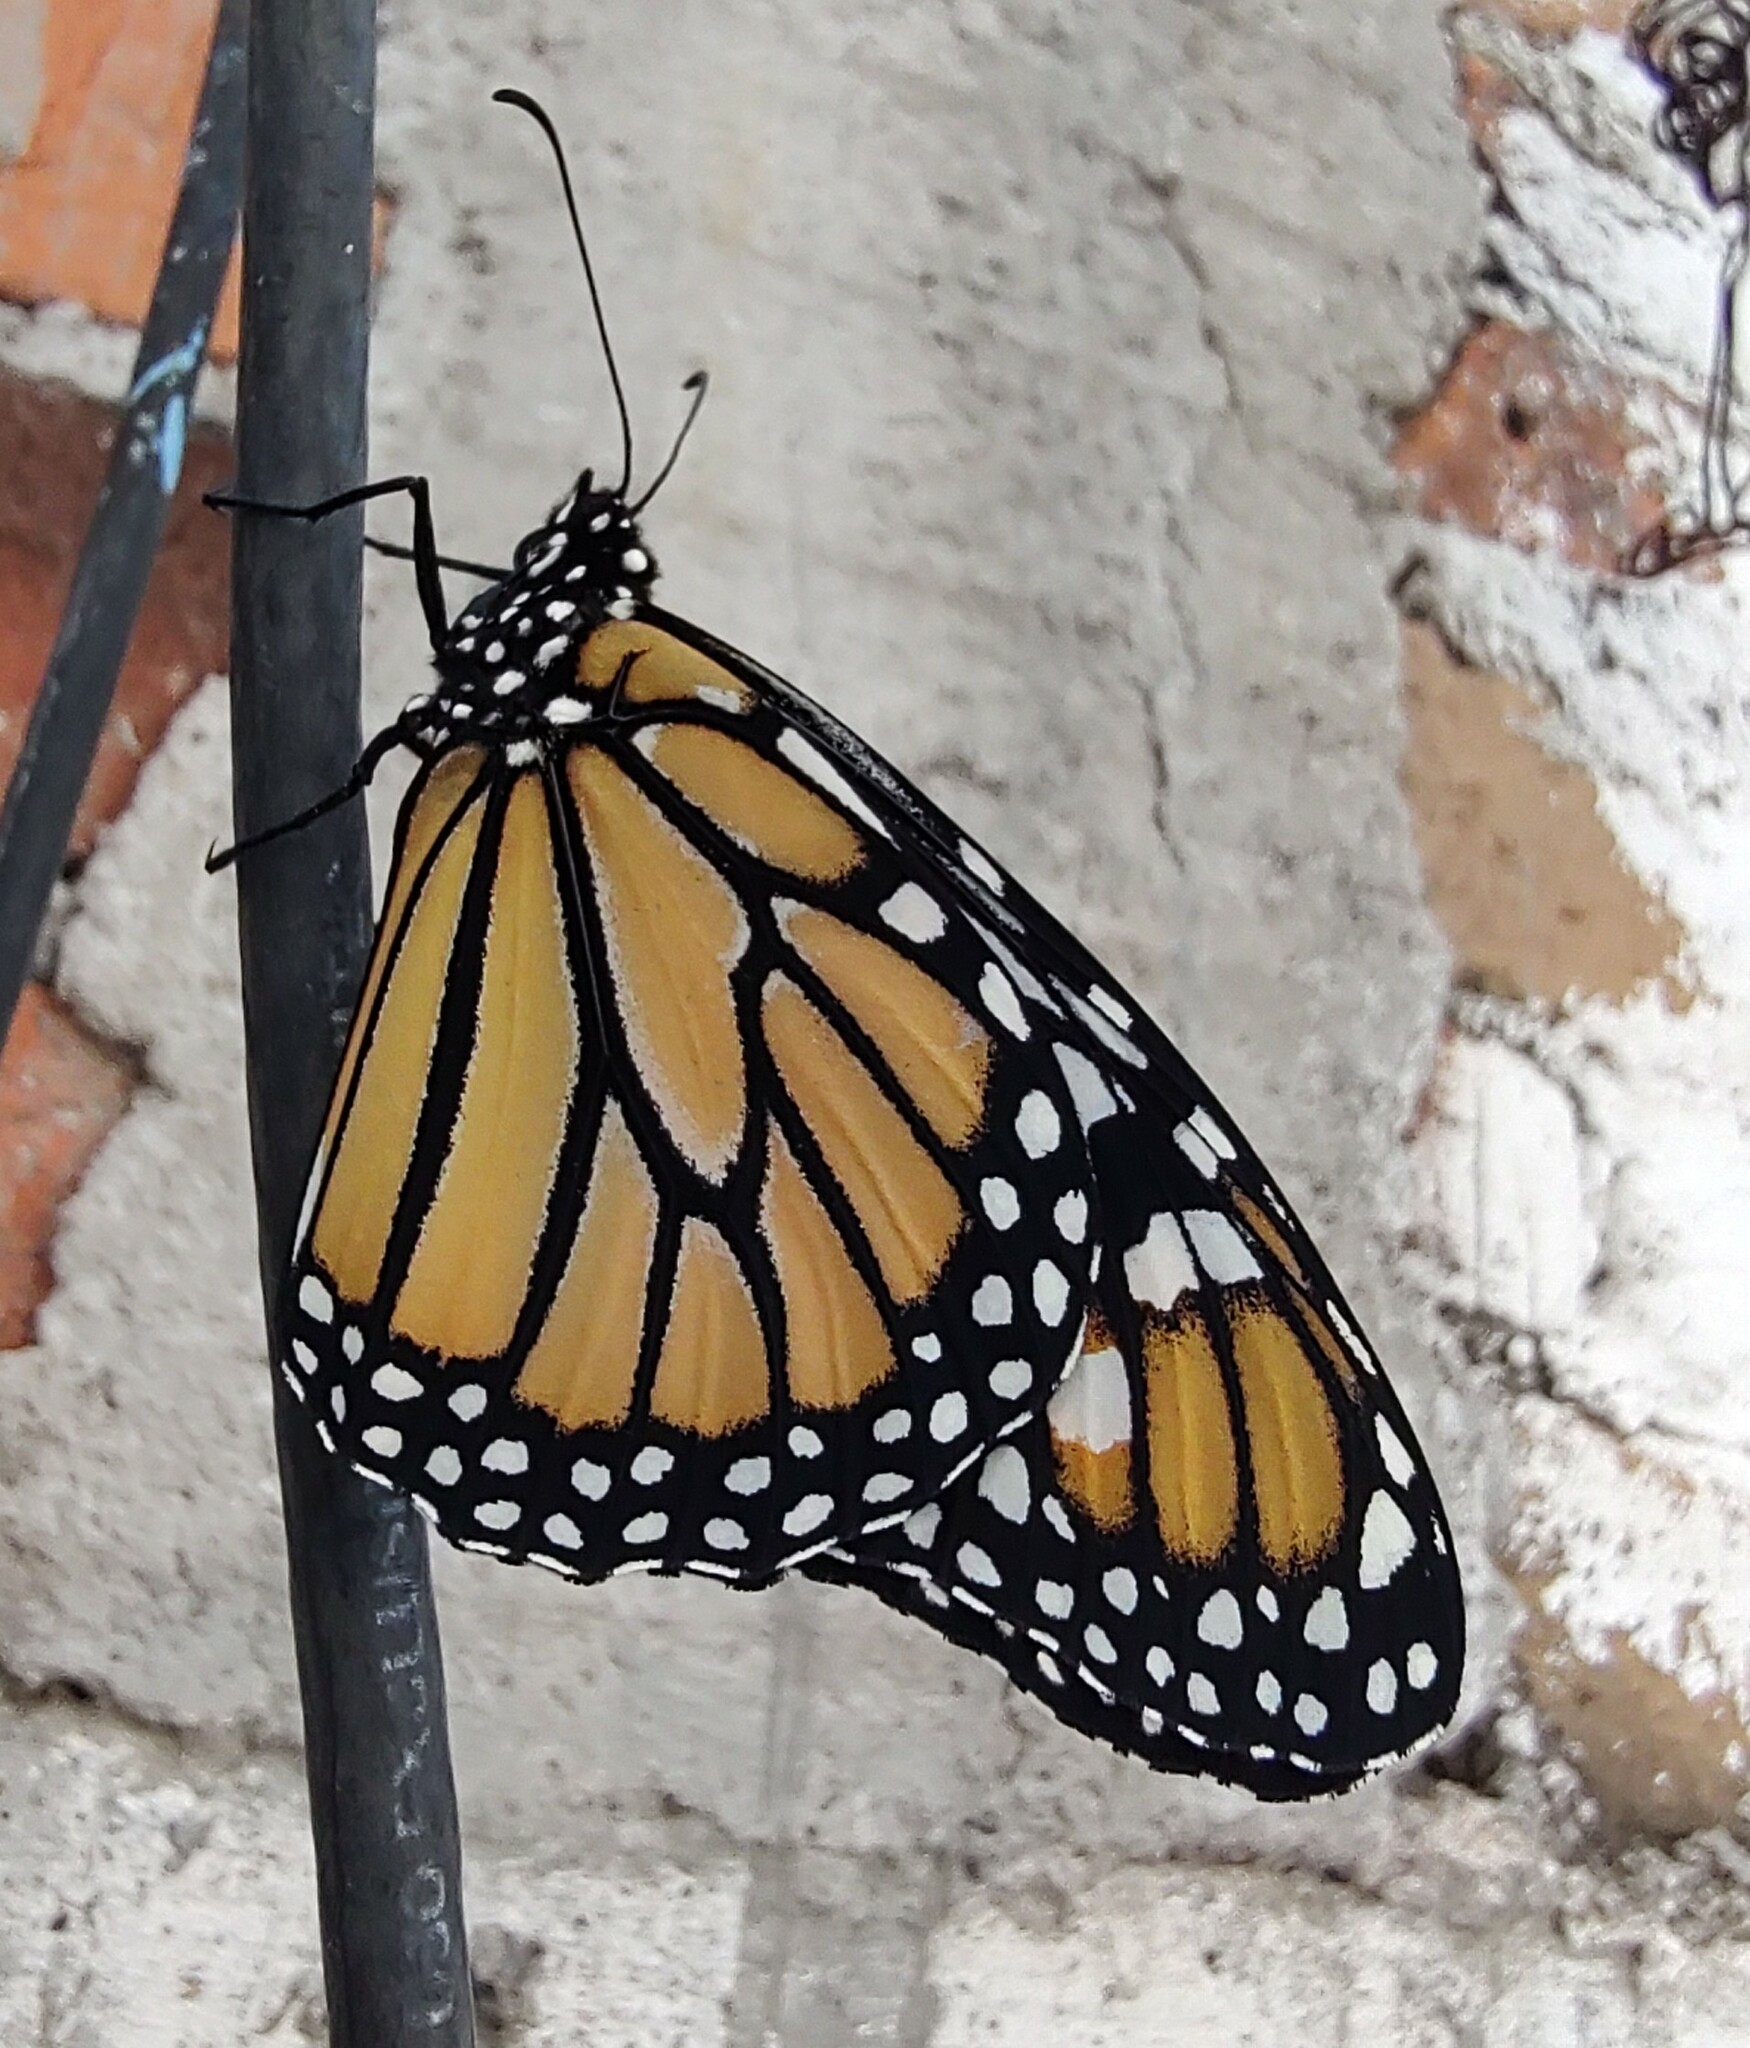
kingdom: Animalia
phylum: Arthropoda
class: Insecta
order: Lepidoptera
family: Nymphalidae
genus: Danaus
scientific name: Danaus plexippus
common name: Monarch
